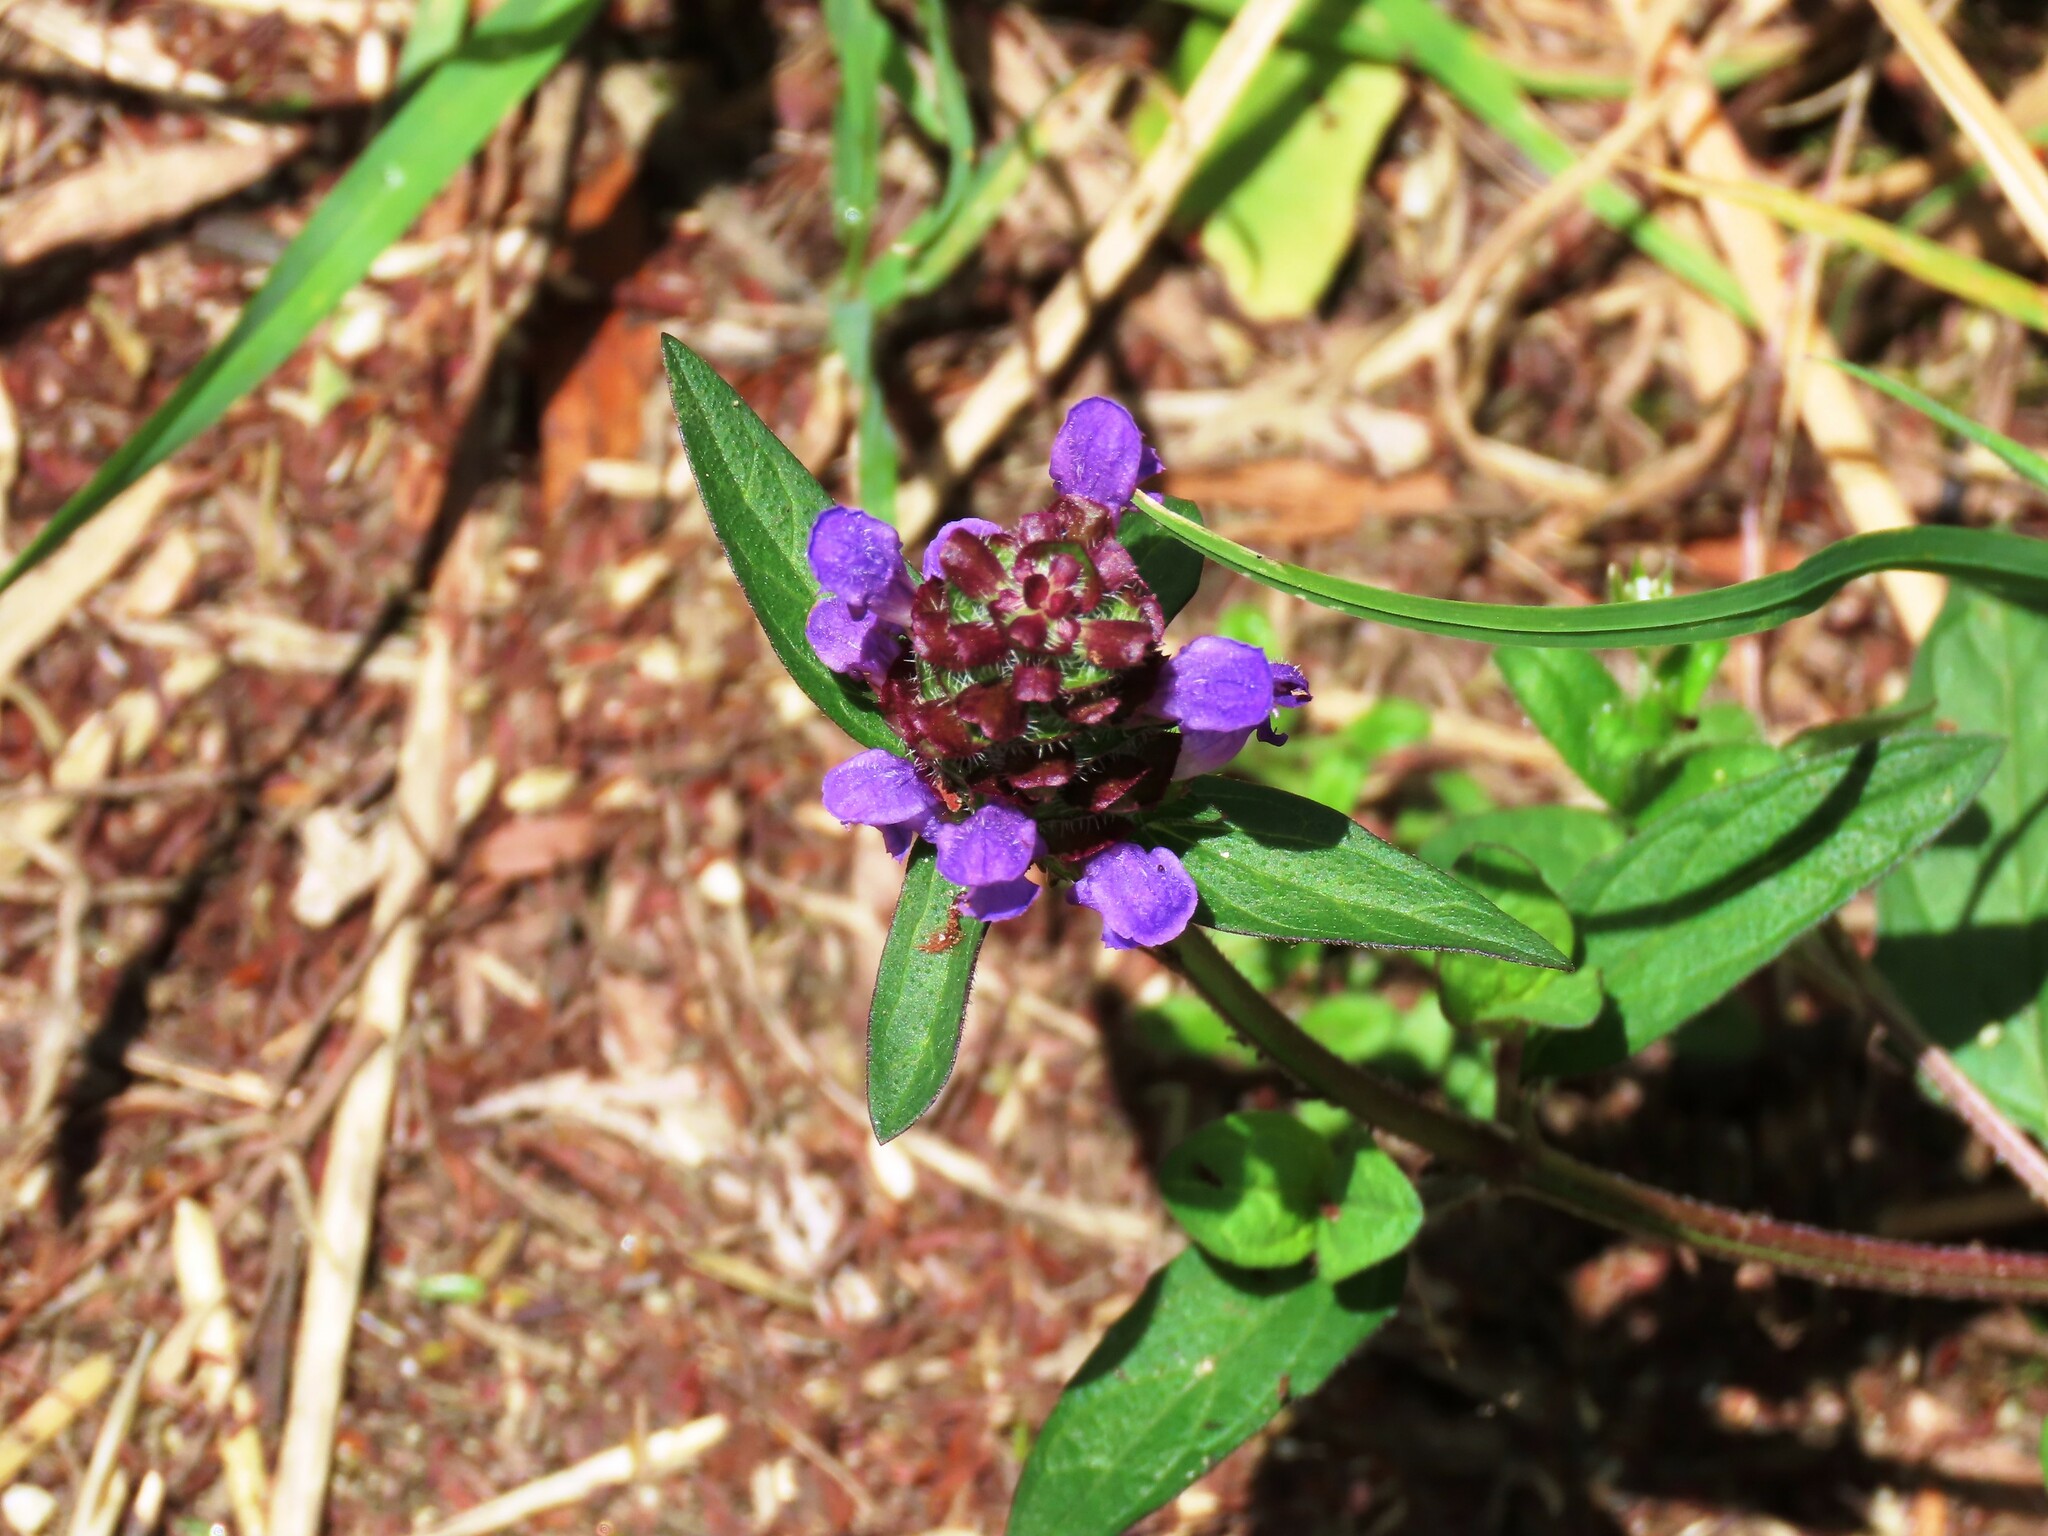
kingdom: Plantae
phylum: Tracheophyta
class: Magnoliopsida
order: Lamiales
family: Lamiaceae
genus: Prunella
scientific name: Prunella vulgaris
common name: Heal-all
